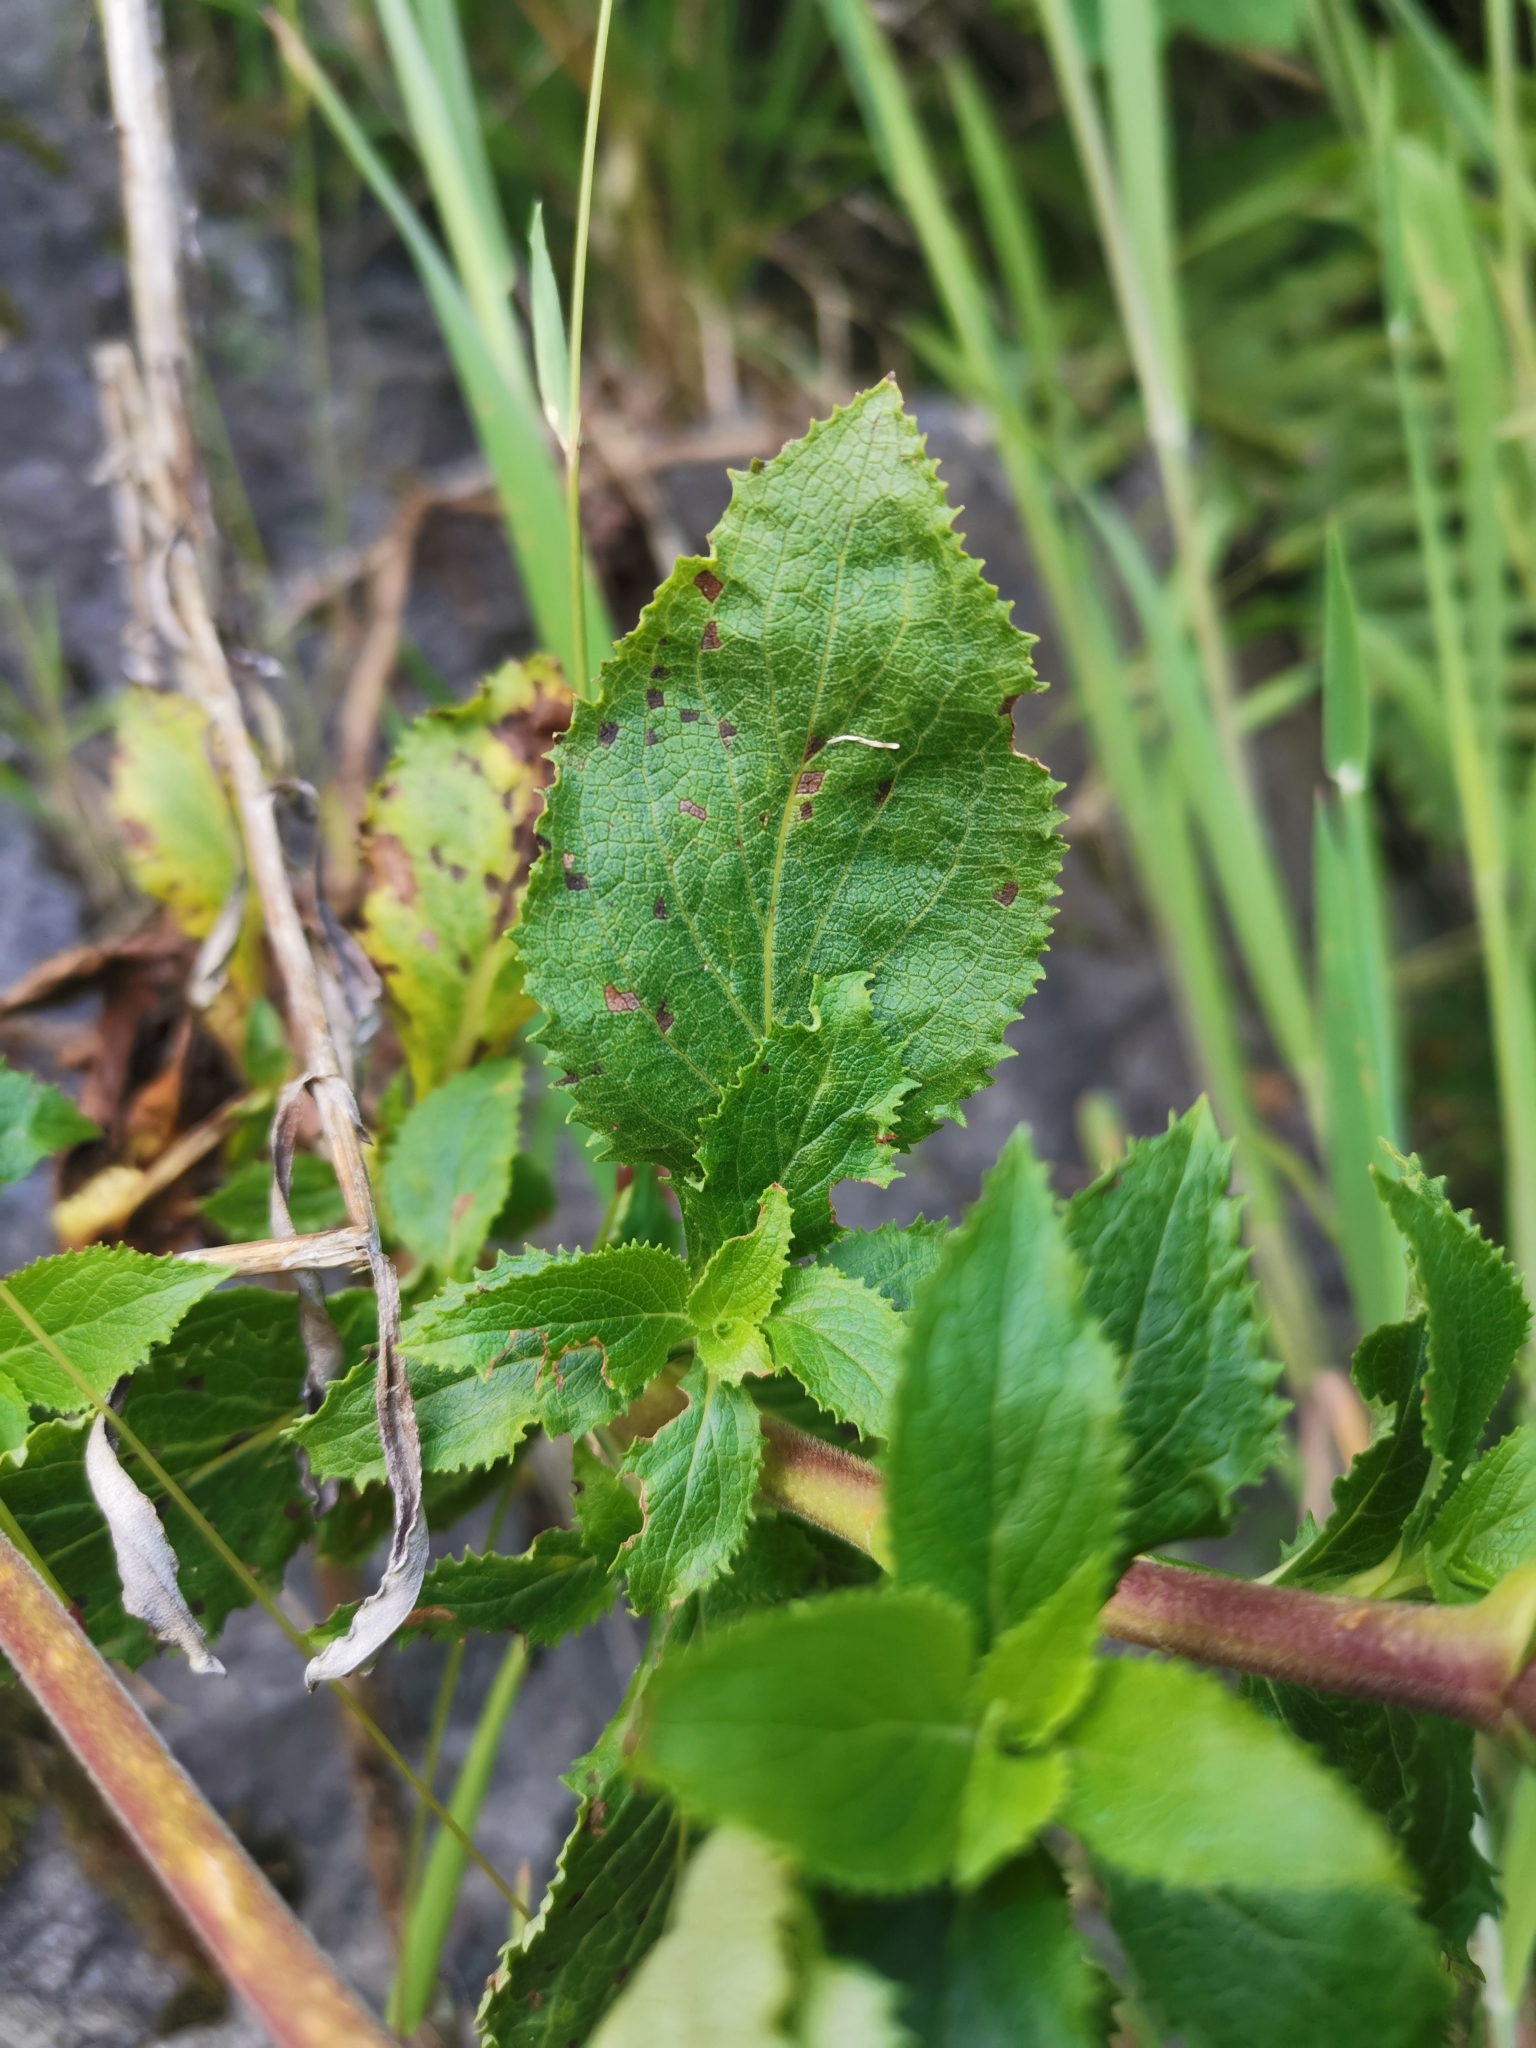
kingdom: Plantae
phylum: Tracheophyta
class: Magnoliopsida
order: Lamiales
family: Calceolariaceae
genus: Calceolaria
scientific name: Calceolaria dentata
